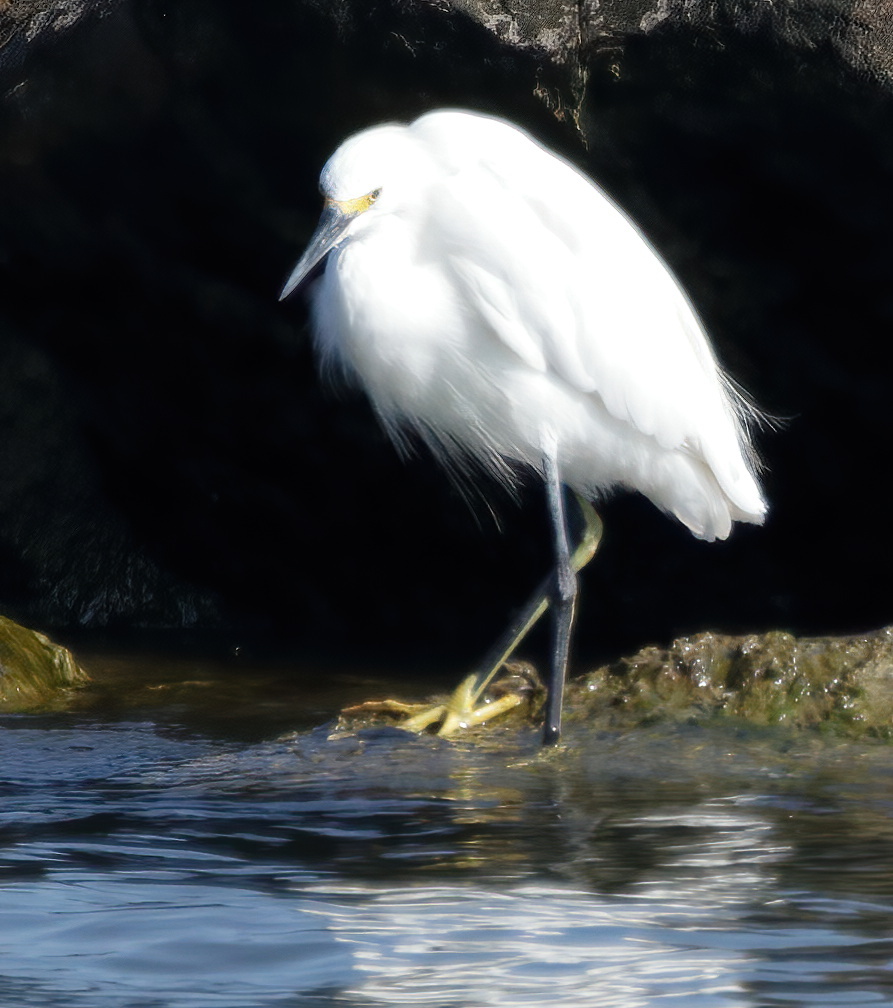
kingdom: Animalia
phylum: Chordata
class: Aves
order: Pelecaniformes
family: Ardeidae
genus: Egretta
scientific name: Egretta thula
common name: Snowy egret
